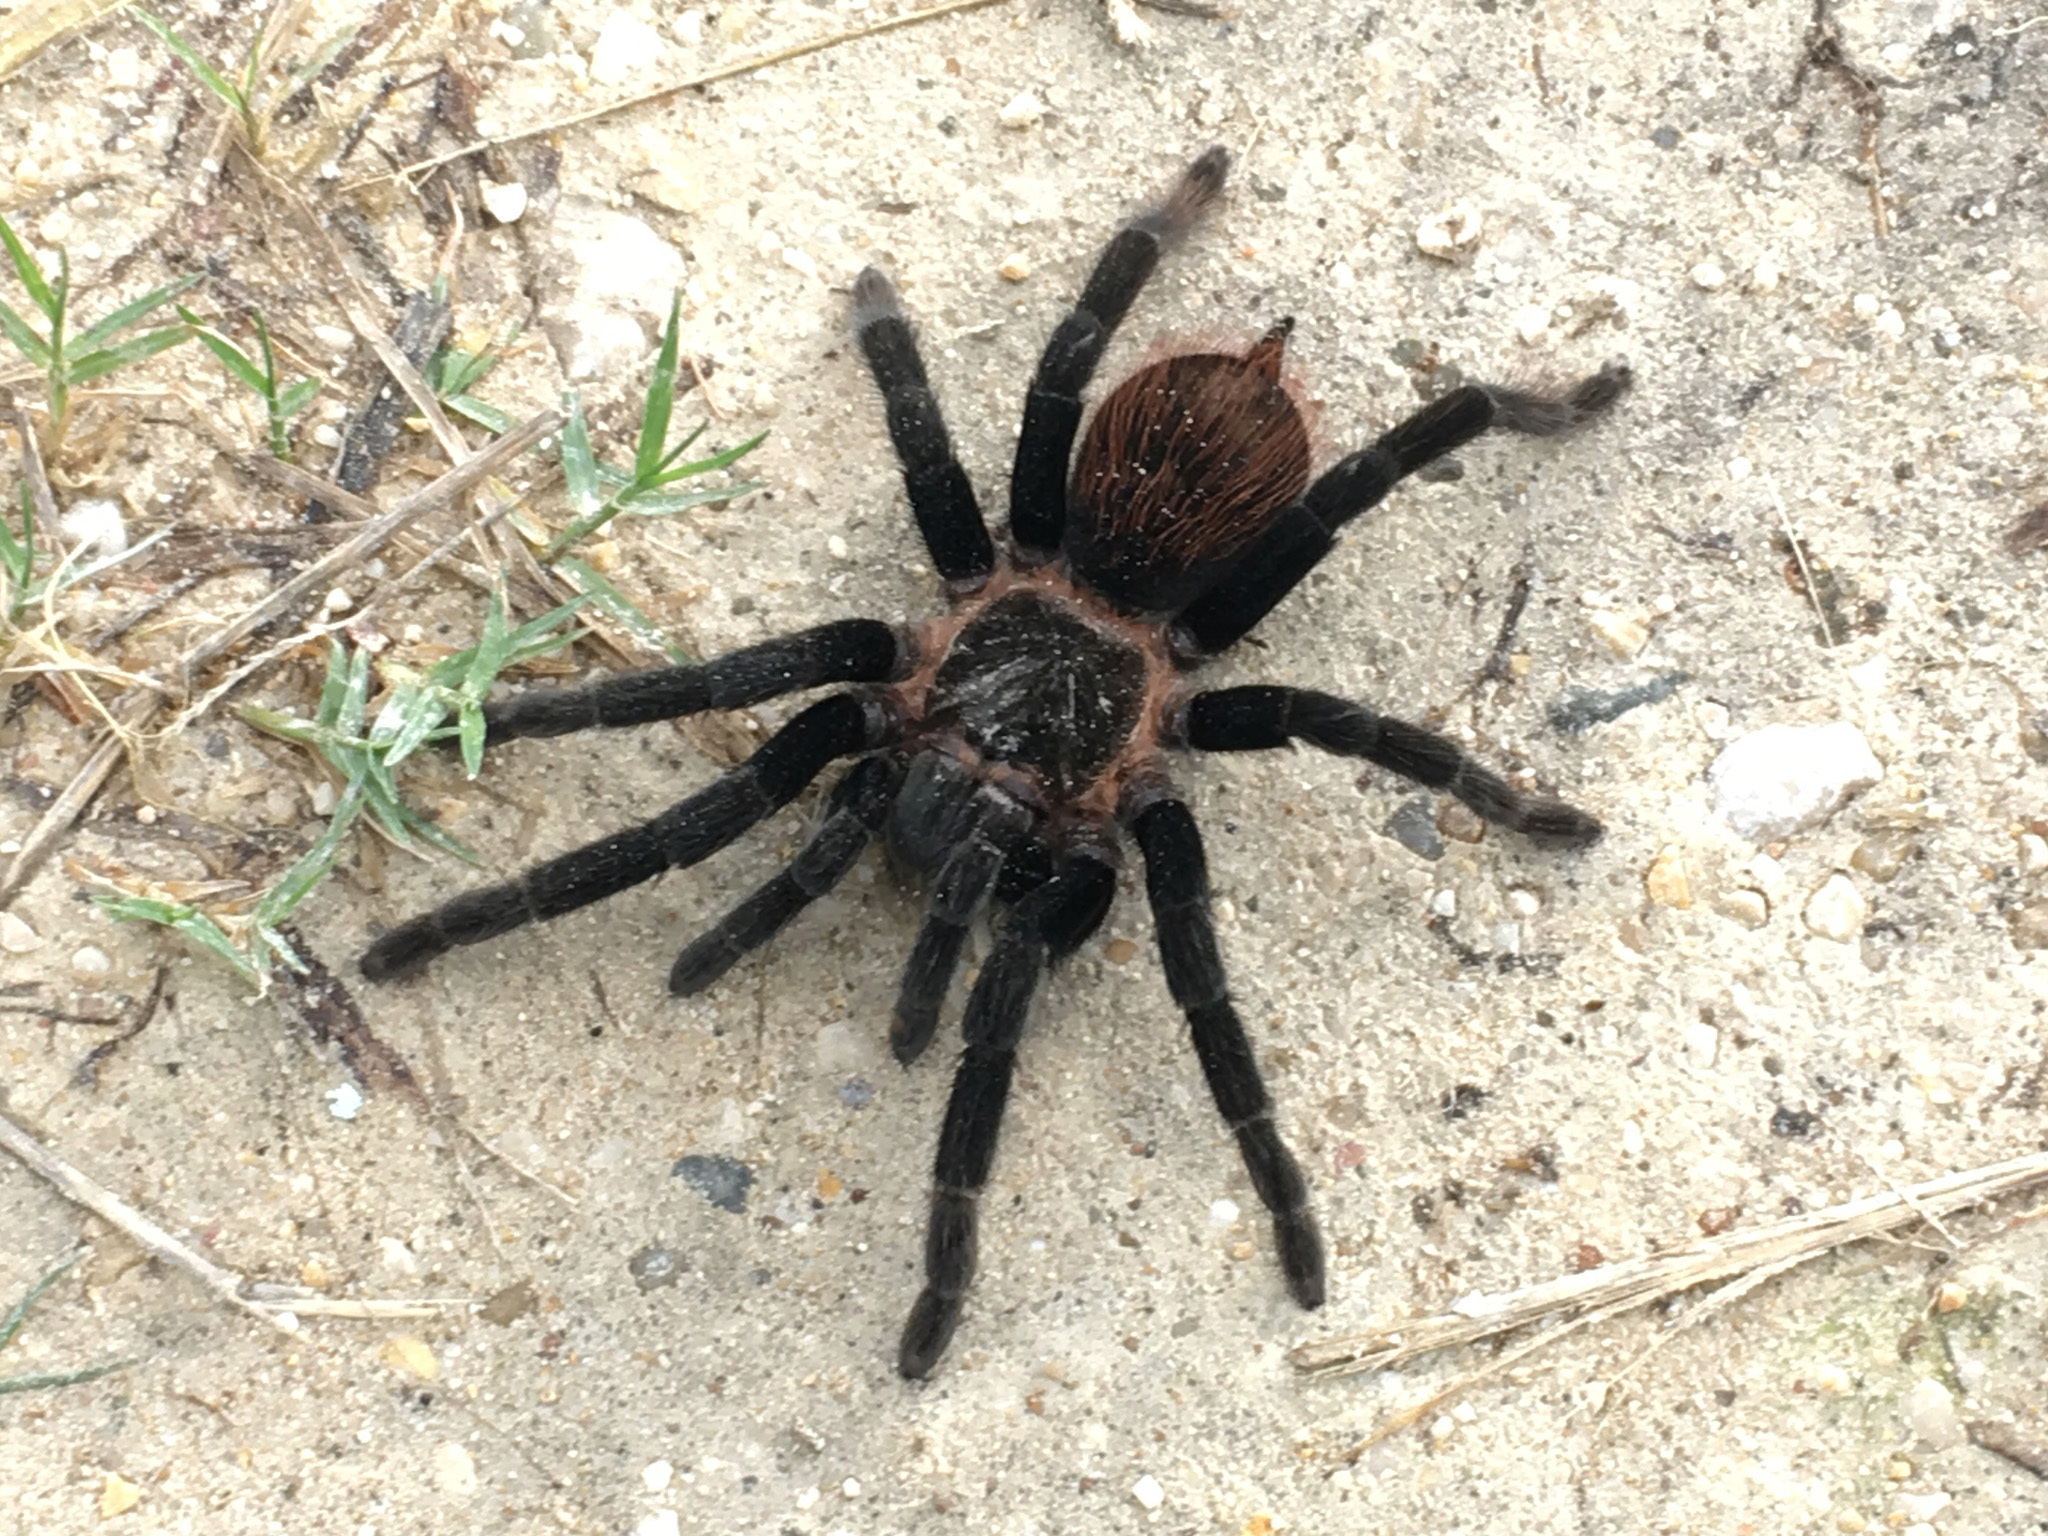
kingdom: Animalia
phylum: Arthropoda
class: Arachnida
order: Araneae
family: Theraphosidae
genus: Tliltocatl
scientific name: Tliltocatl vagans
